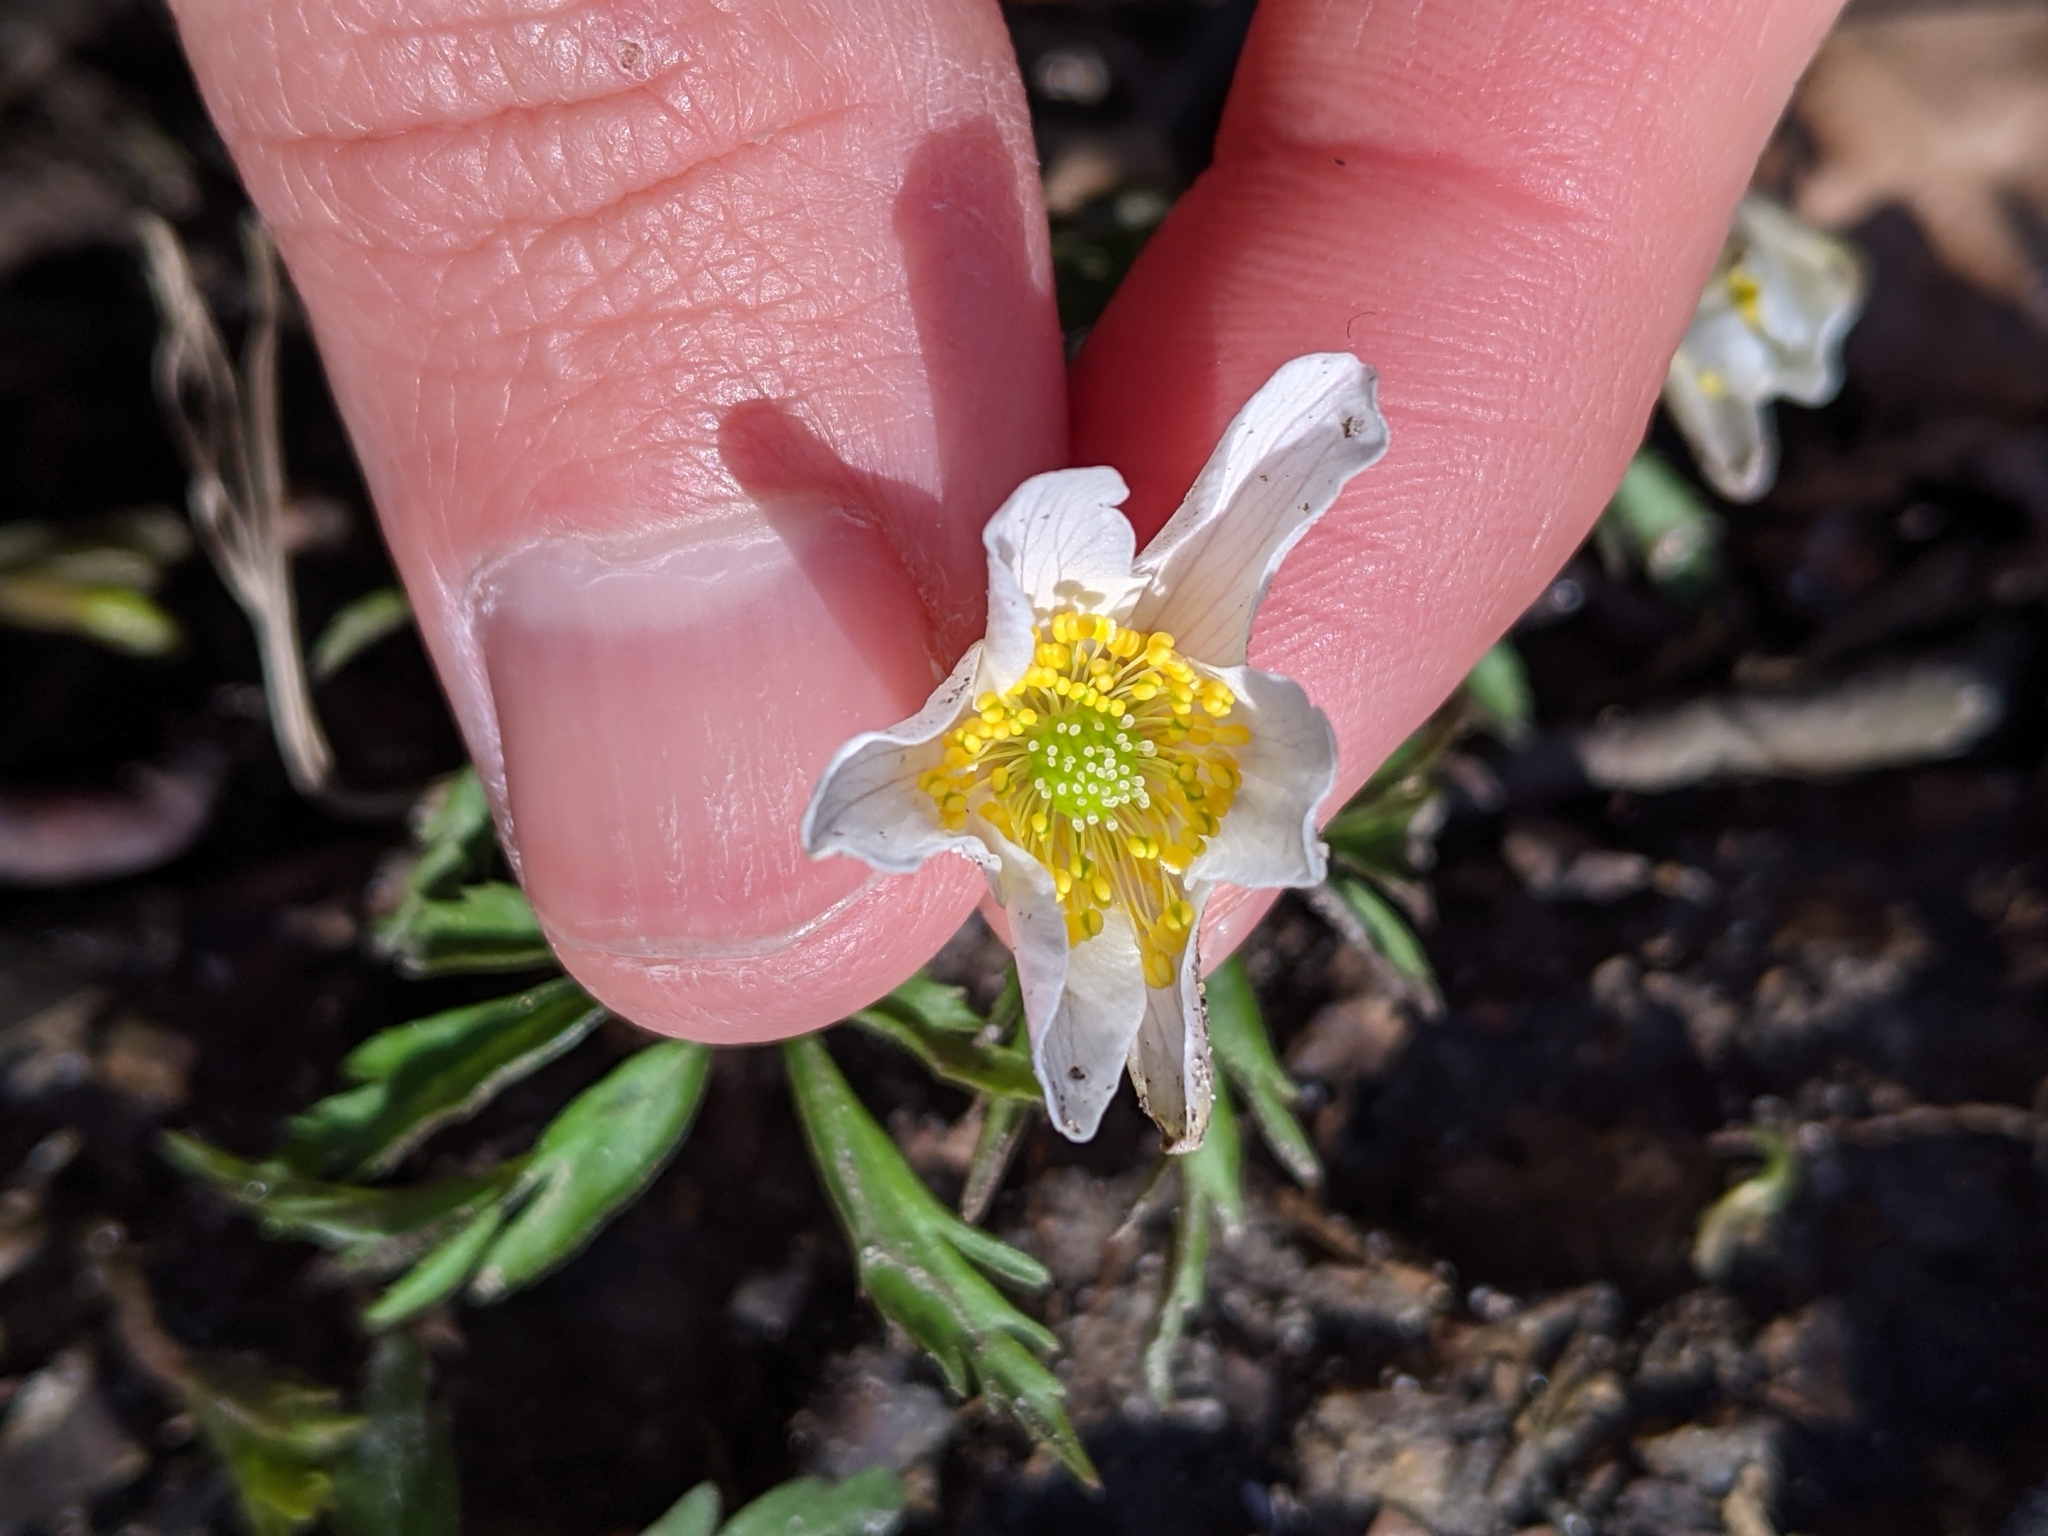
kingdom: Plantae
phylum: Tracheophyta
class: Magnoliopsida
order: Ranunculales
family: Ranunculaceae
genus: Anemone
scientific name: Anemone nemorosa
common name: Wood anemone
